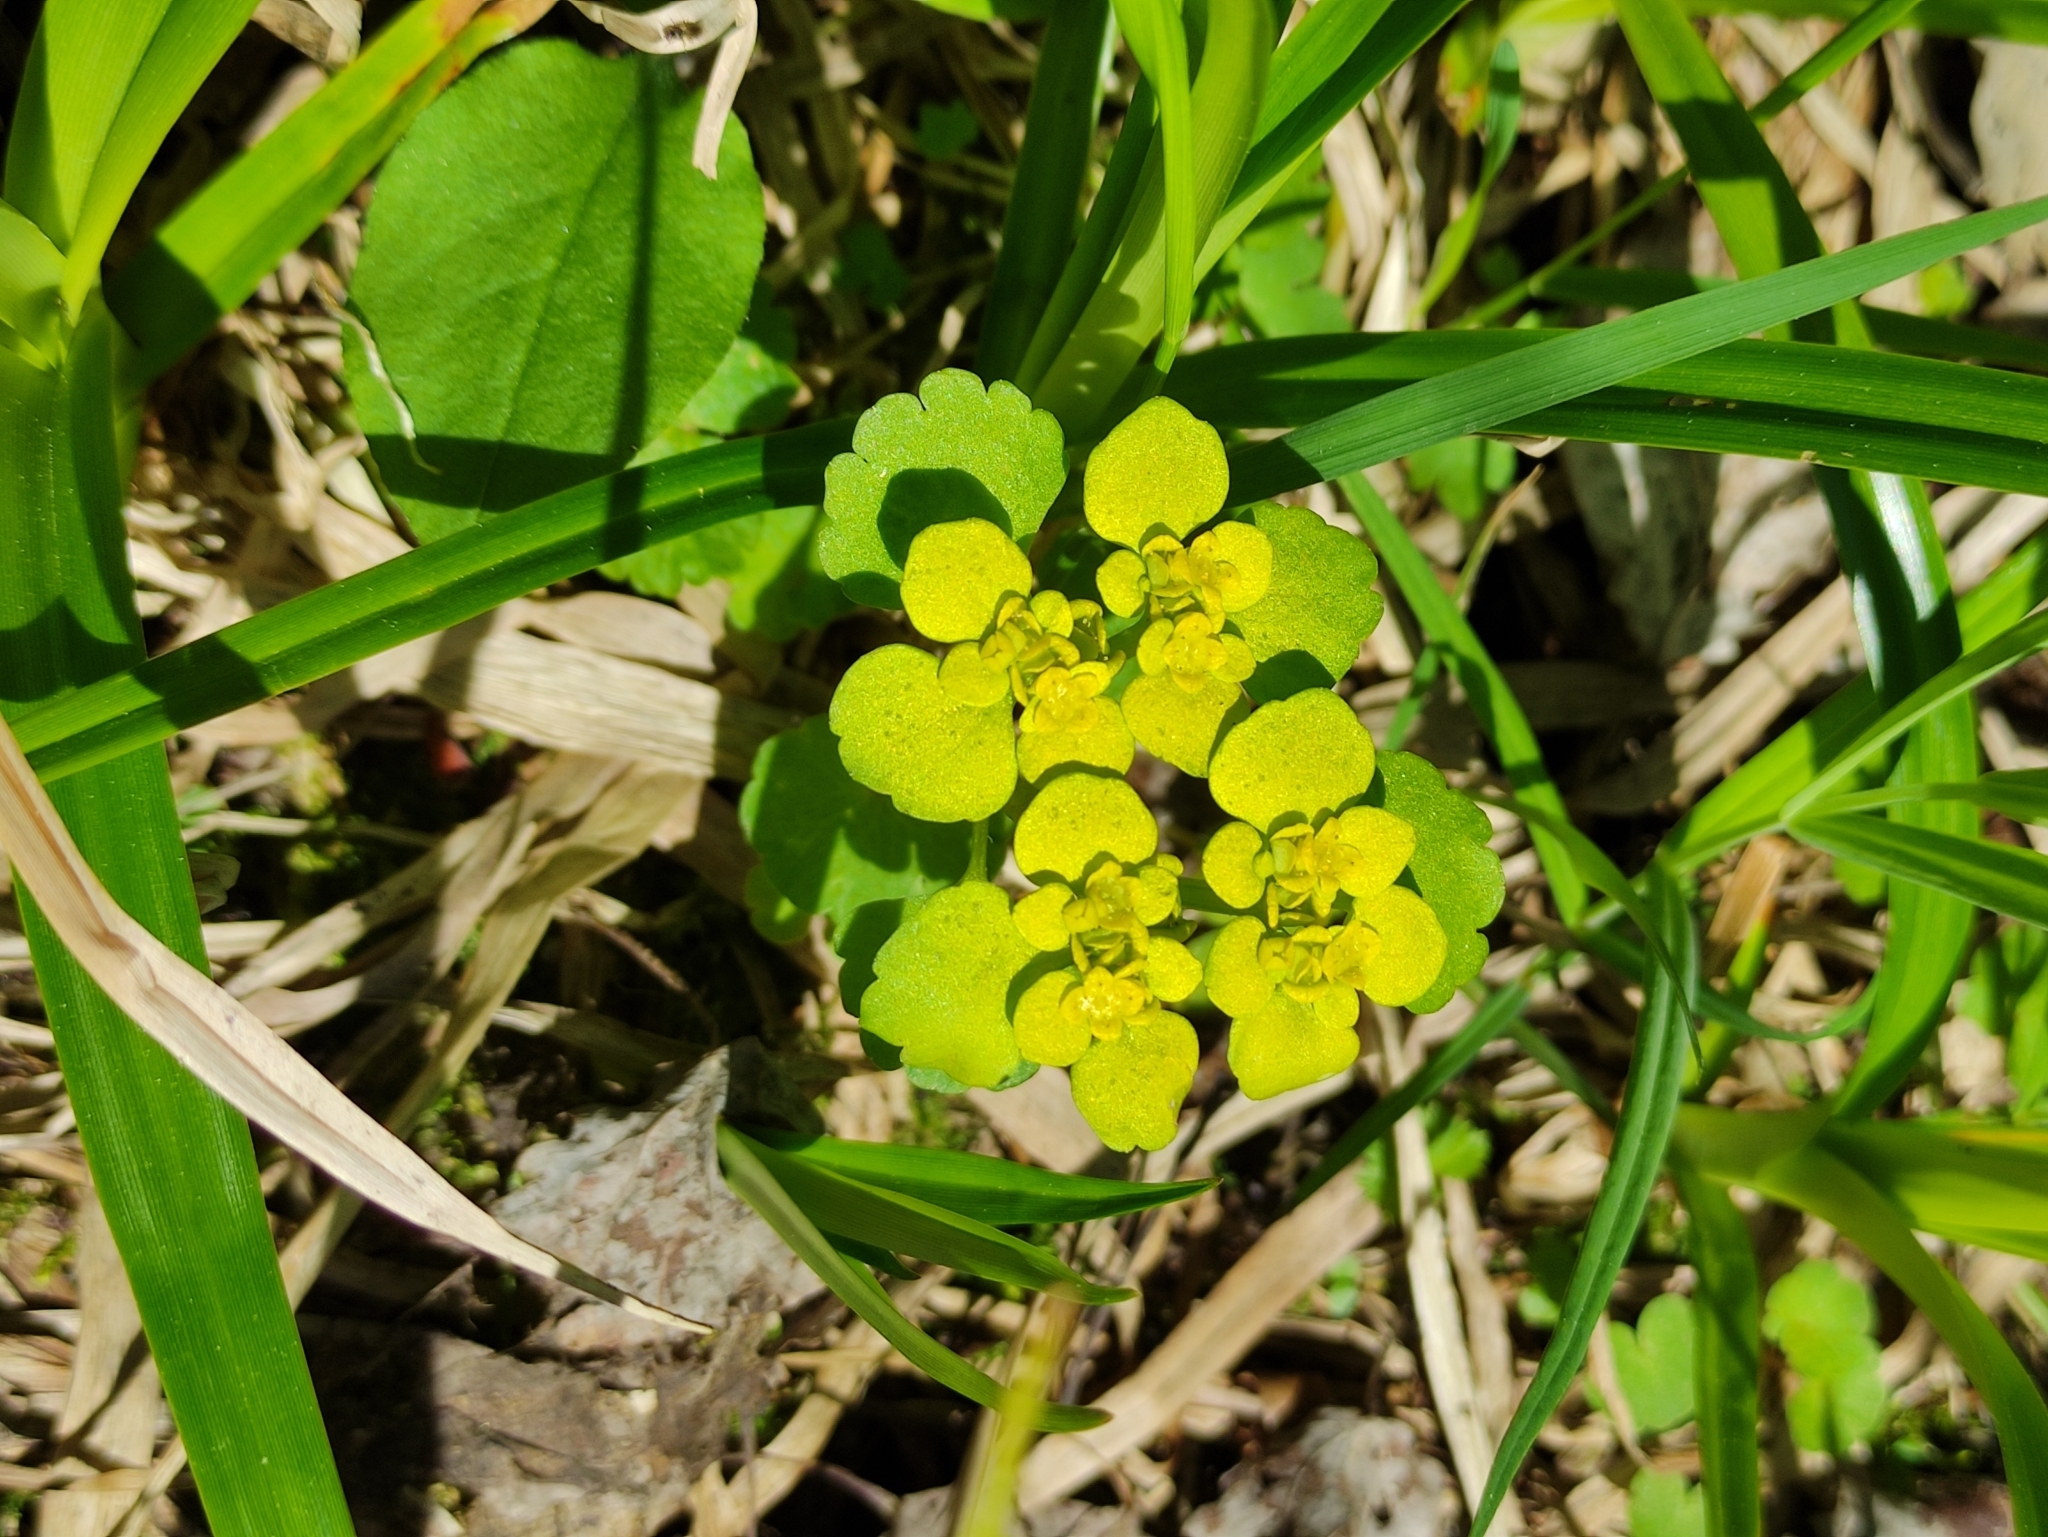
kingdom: Plantae
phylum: Tracheophyta
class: Magnoliopsida
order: Saxifragales
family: Saxifragaceae
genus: Chrysosplenium
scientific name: Chrysosplenium alternifolium
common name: Alternate-leaved golden-saxifrage
